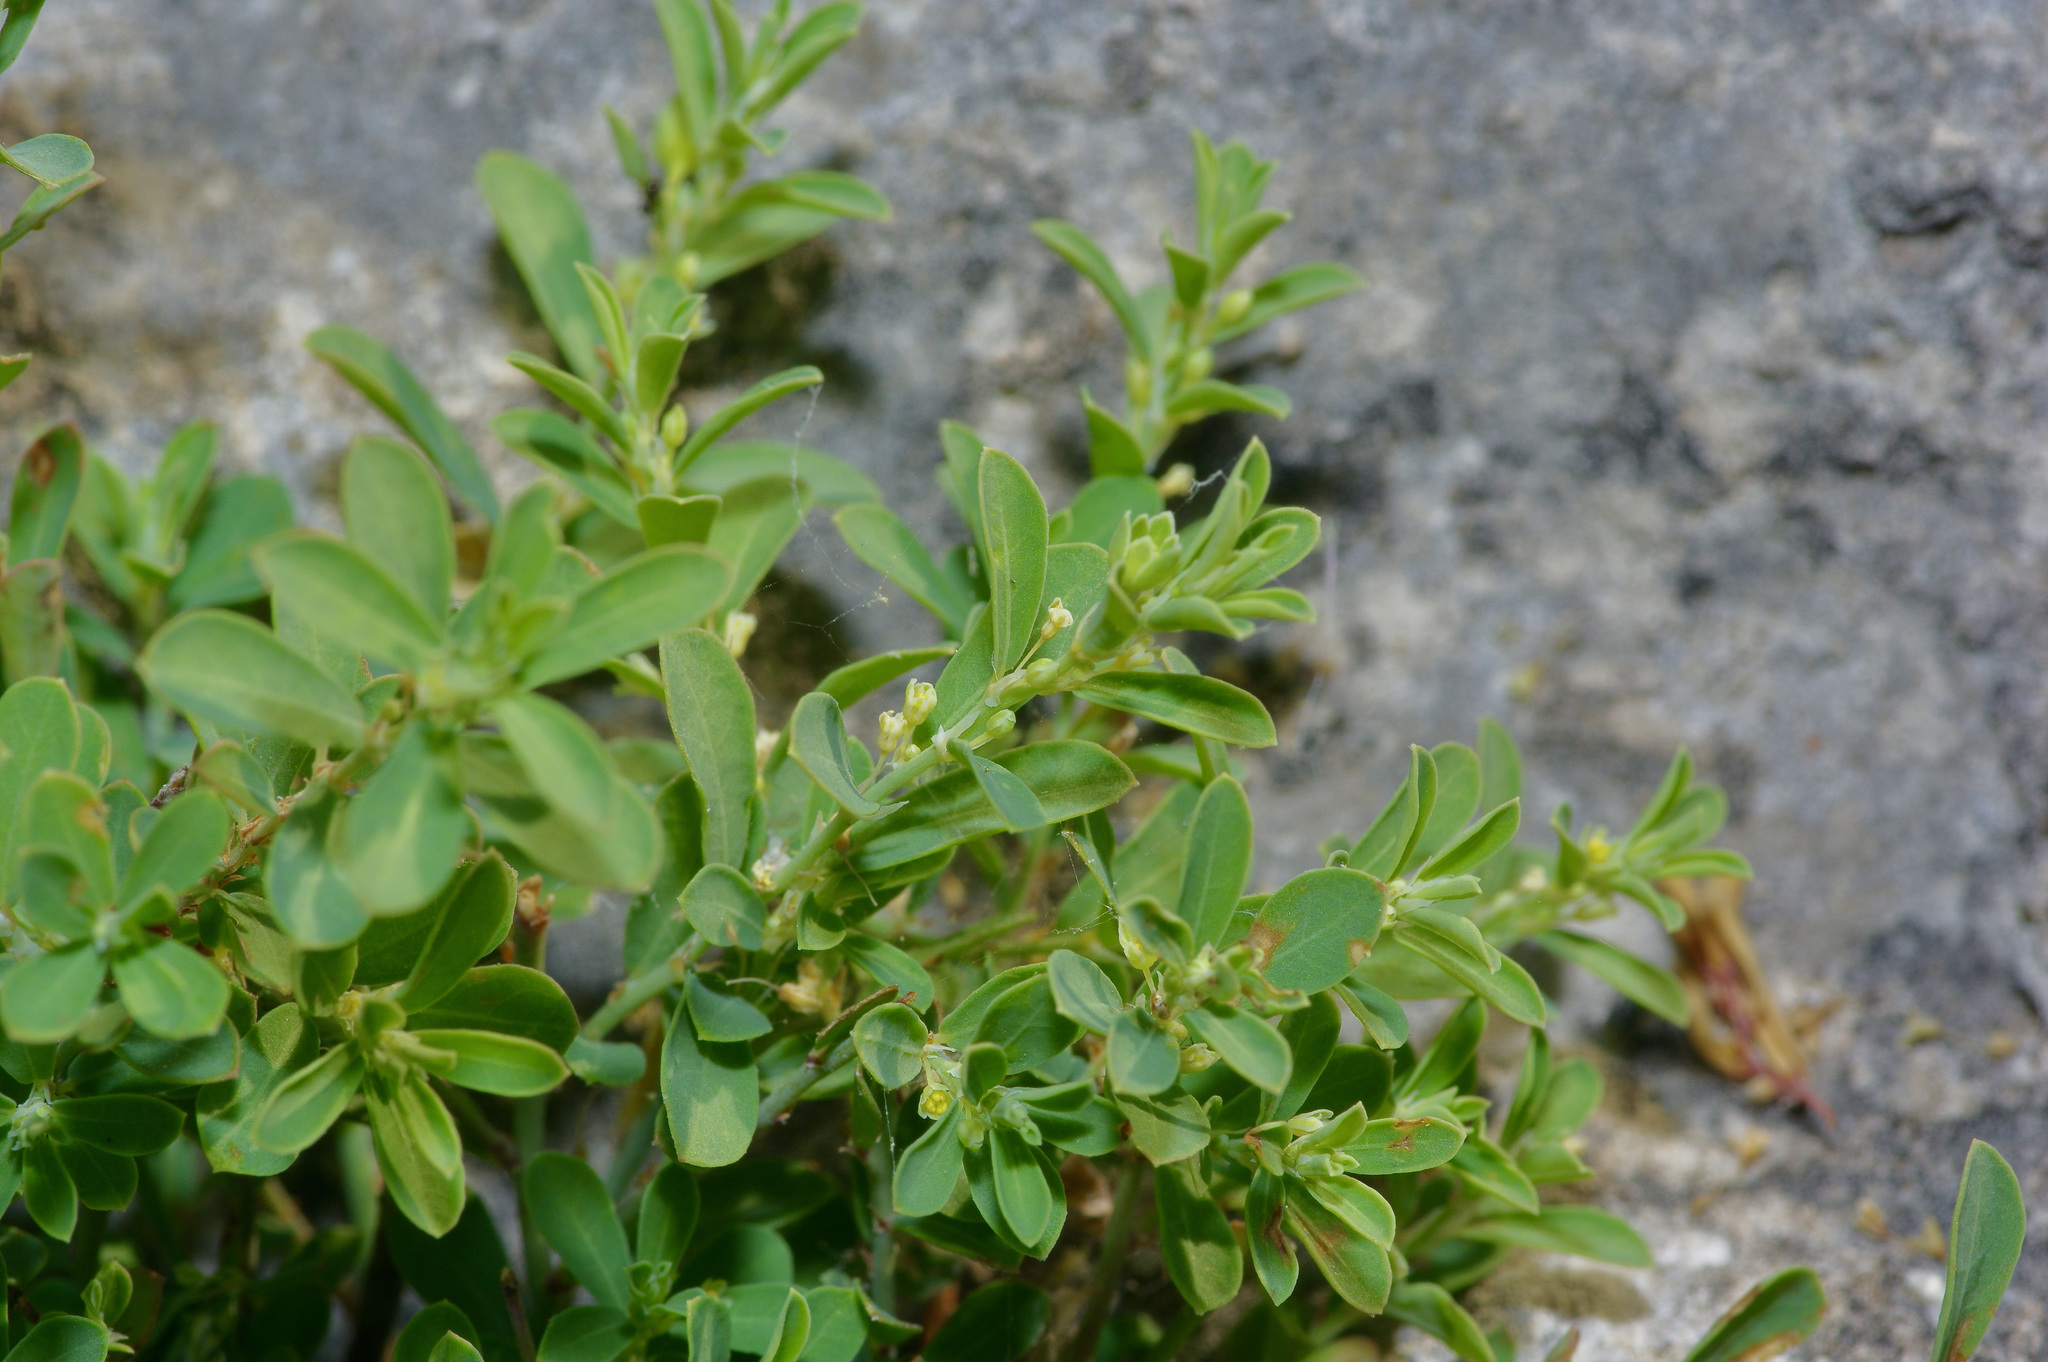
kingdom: Plantae
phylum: Tracheophyta
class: Magnoliopsida
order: Malpighiales
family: Phyllanthaceae
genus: Phyllanthus
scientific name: Phyllanthus polygonoides
